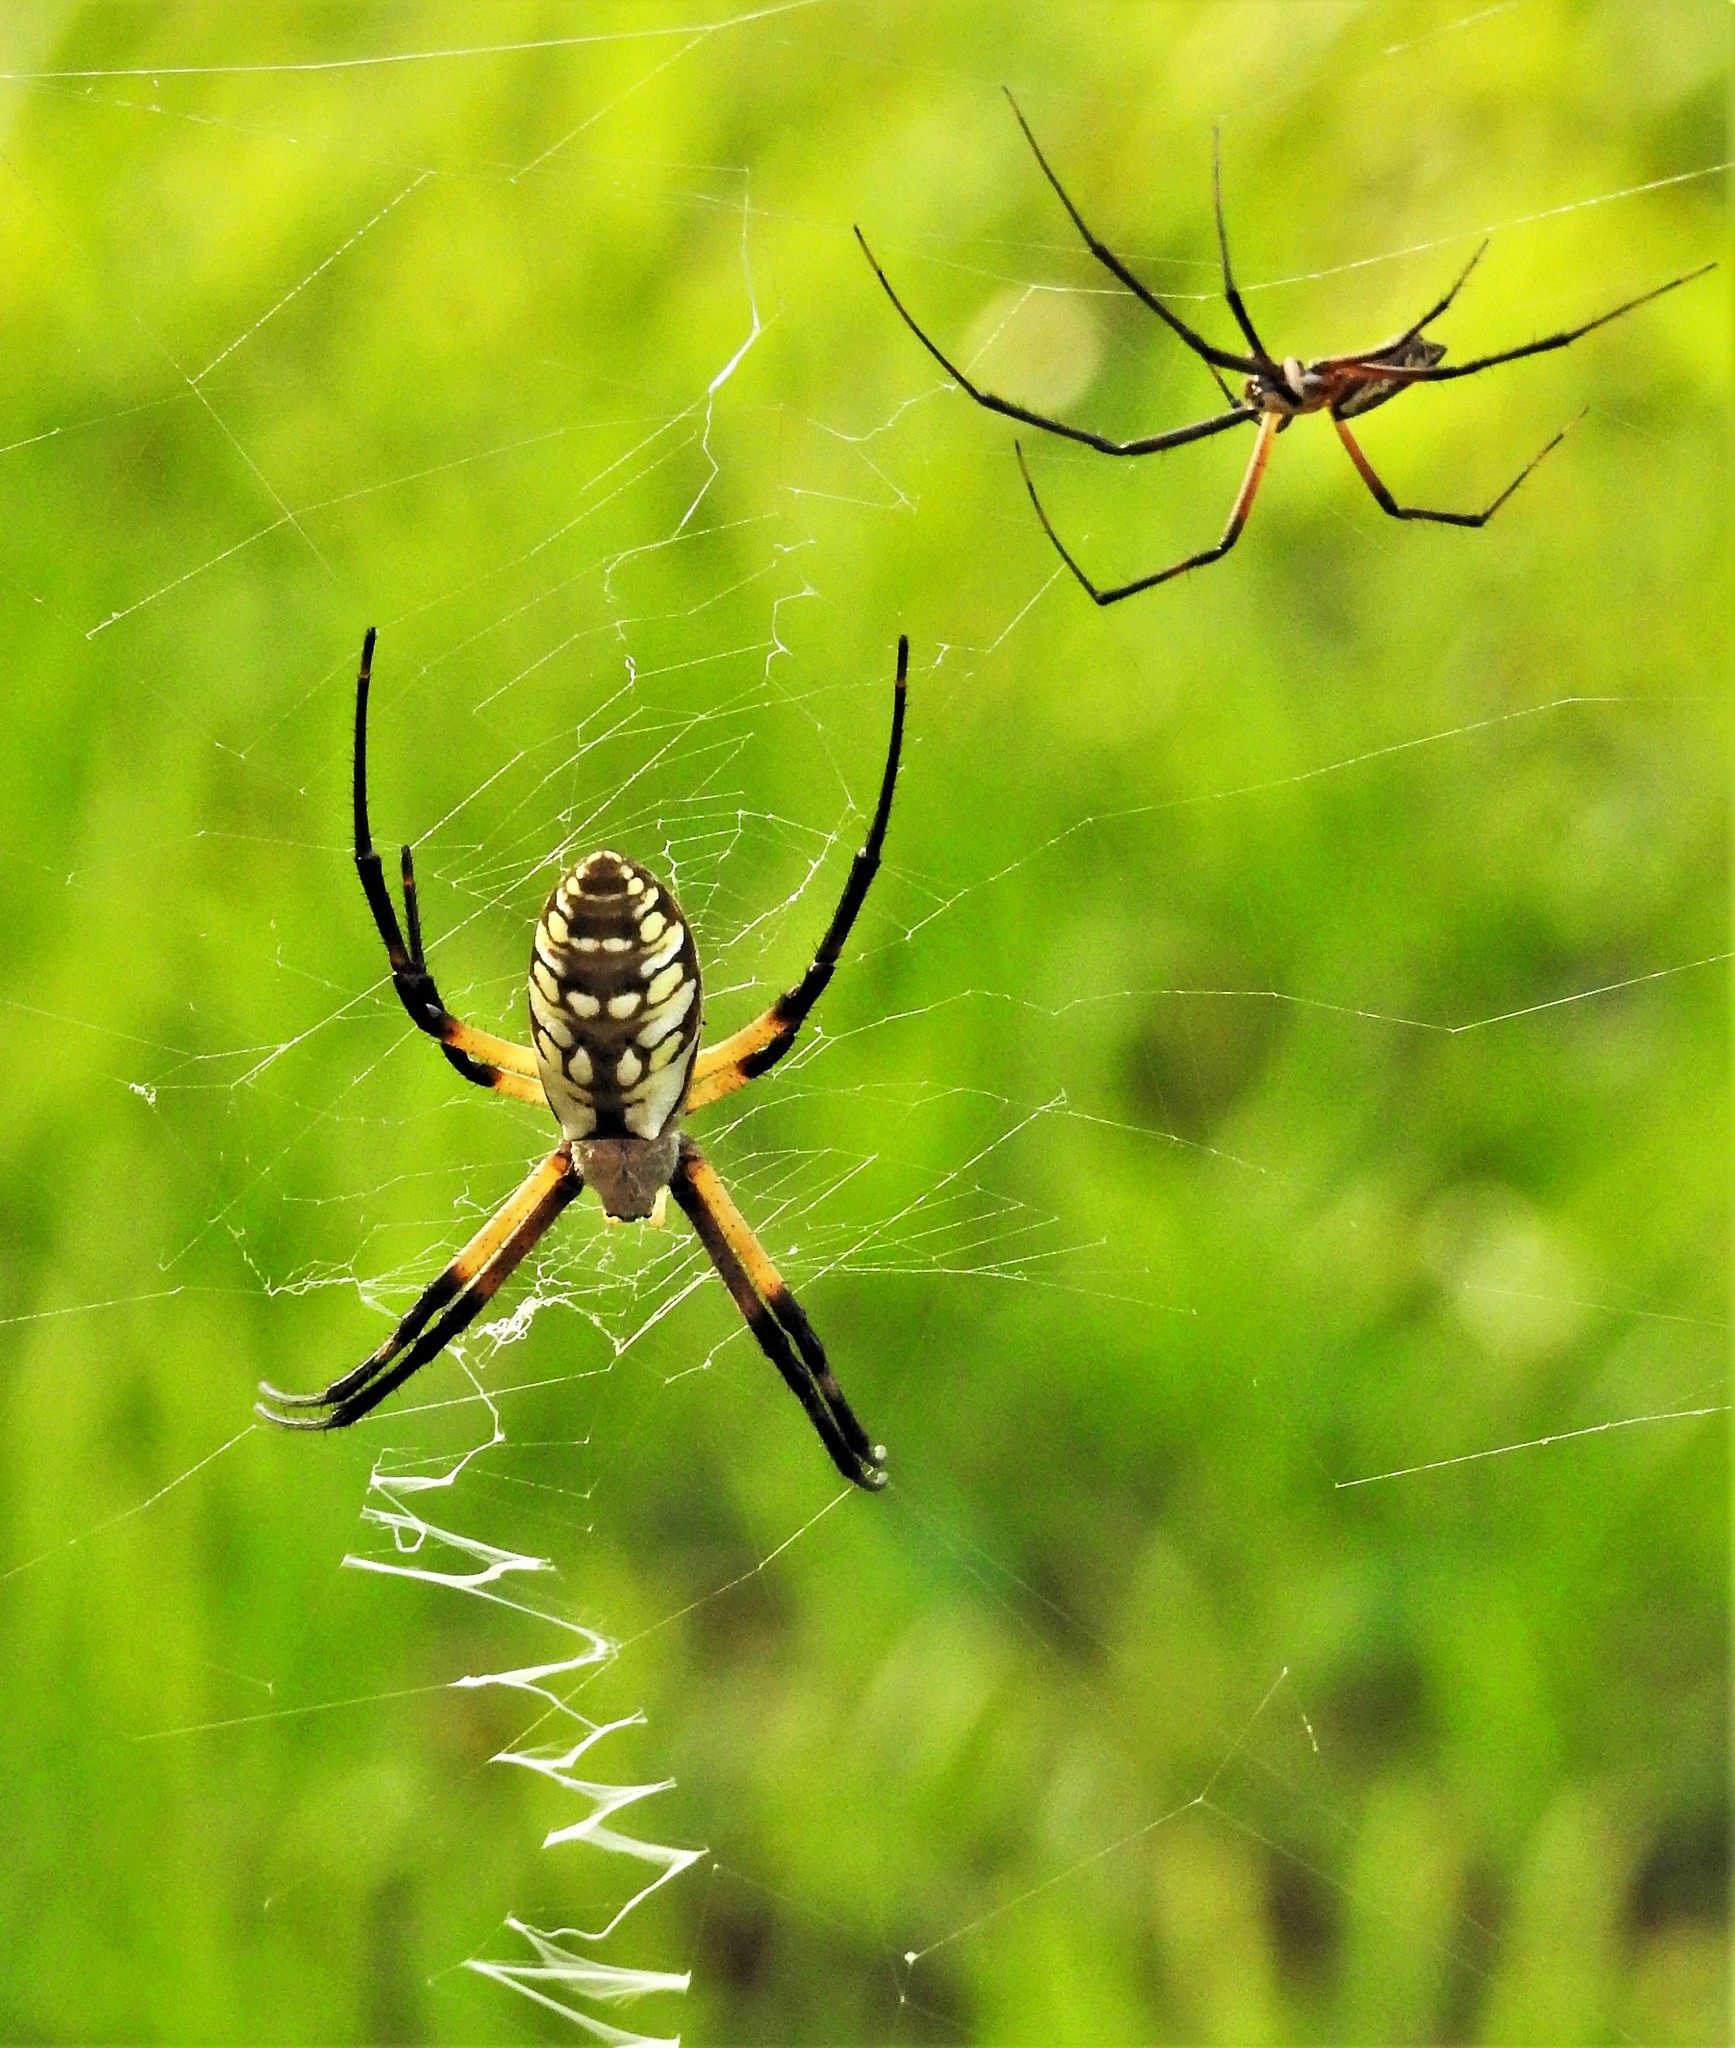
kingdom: Animalia
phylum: Arthropoda
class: Arachnida
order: Araneae
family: Araneidae
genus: Argiope
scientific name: Argiope aurantia
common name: Orb weavers
